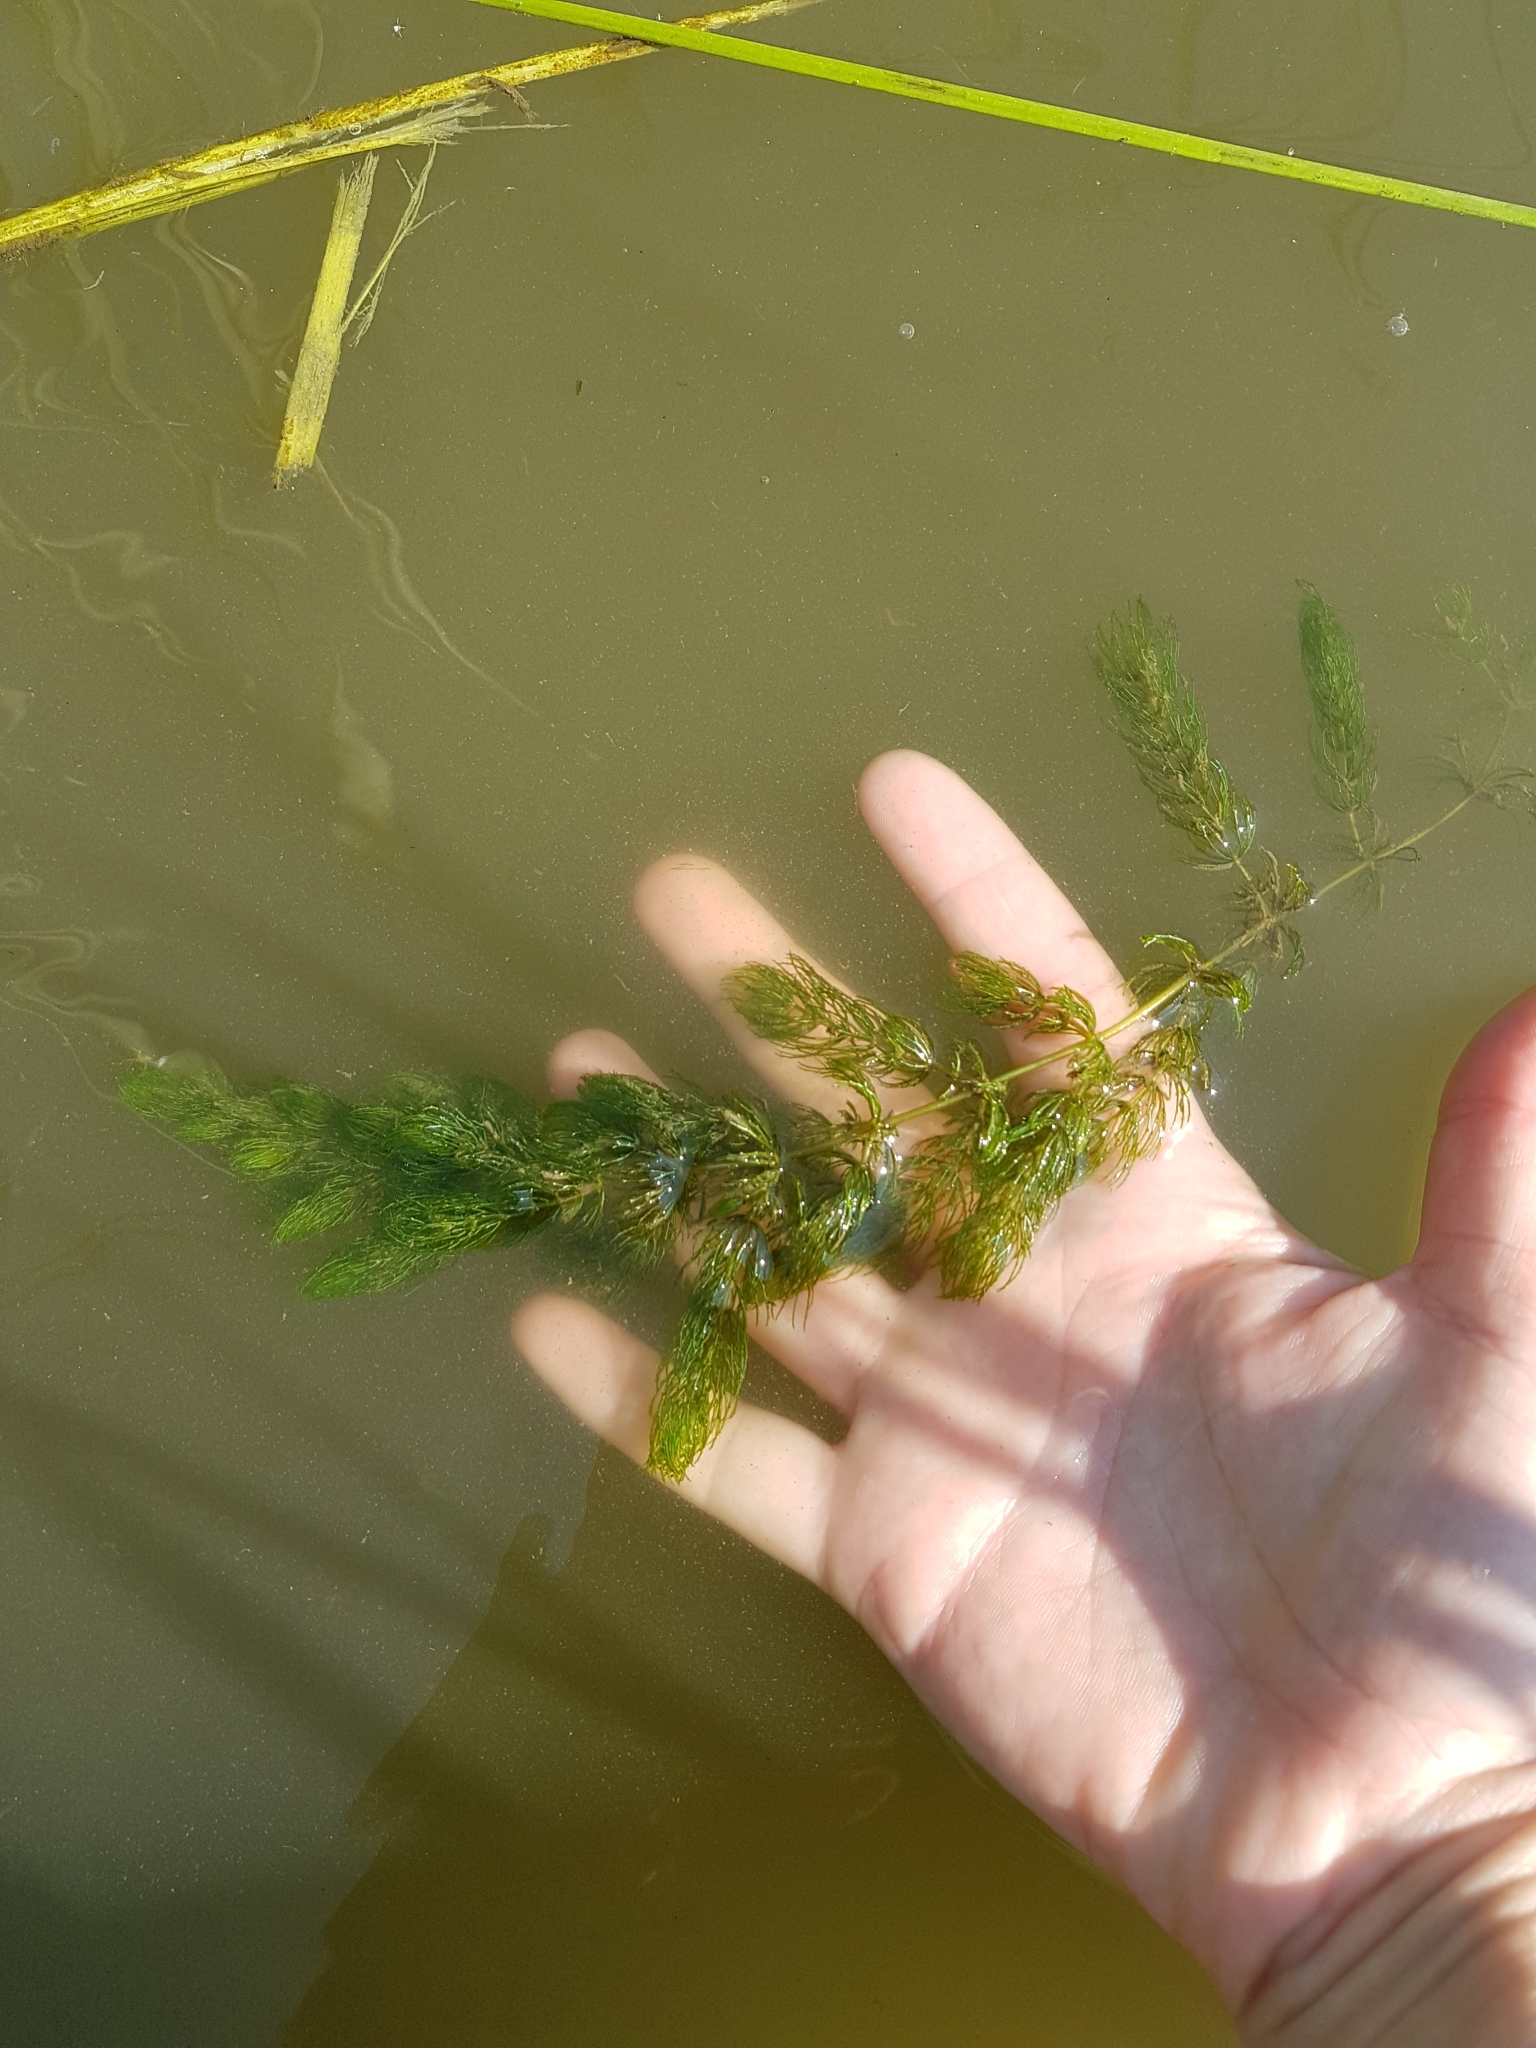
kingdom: Plantae
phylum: Tracheophyta
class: Magnoliopsida
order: Ceratophyllales
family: Ceratophyllaceae
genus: Ceratophyllum
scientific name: Ceratophyllum demersum
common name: Rigid hornwort
